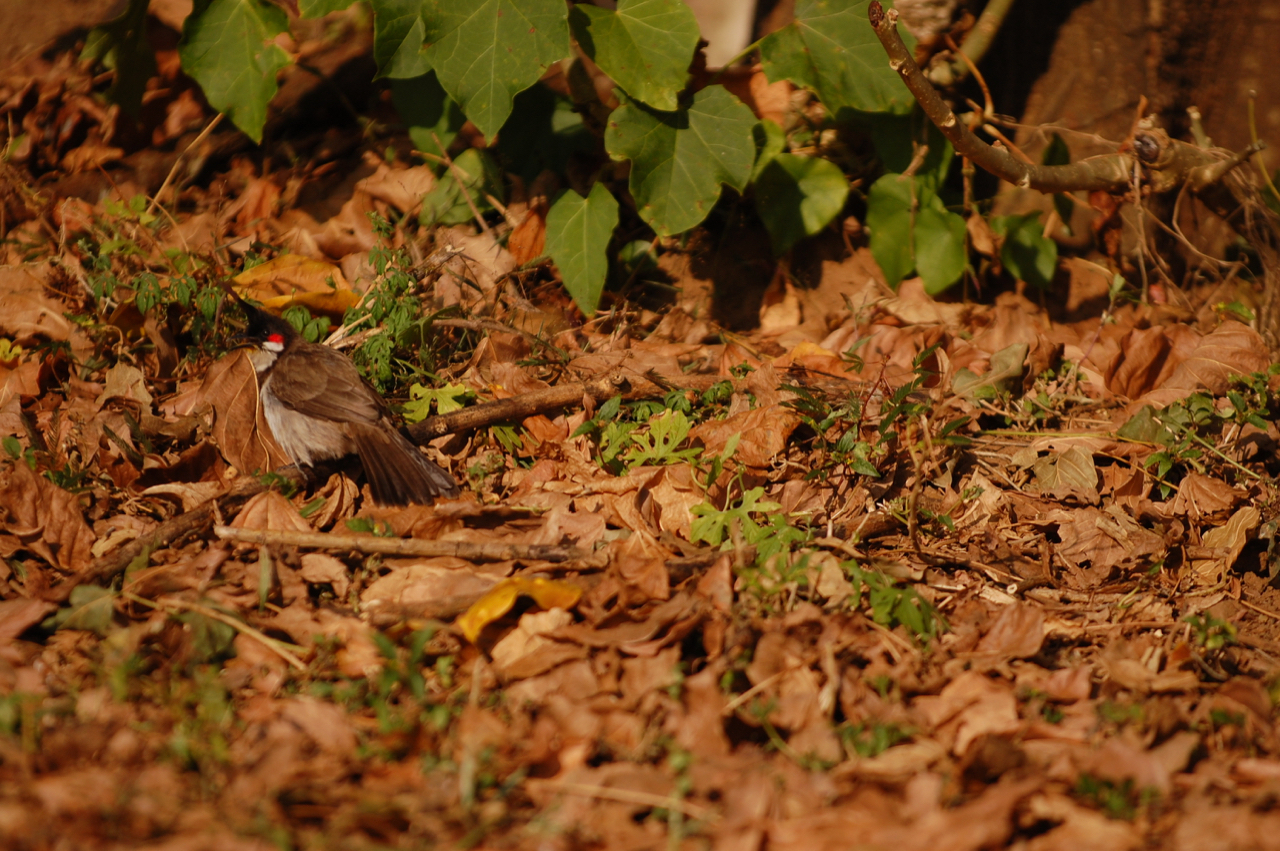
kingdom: Animalia
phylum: Chordata
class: Aves
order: Passeriformes
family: Pycnonotidae
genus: Pycnonotus
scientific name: Pycnonotus jocosus
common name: Red-whiskered bulbul
